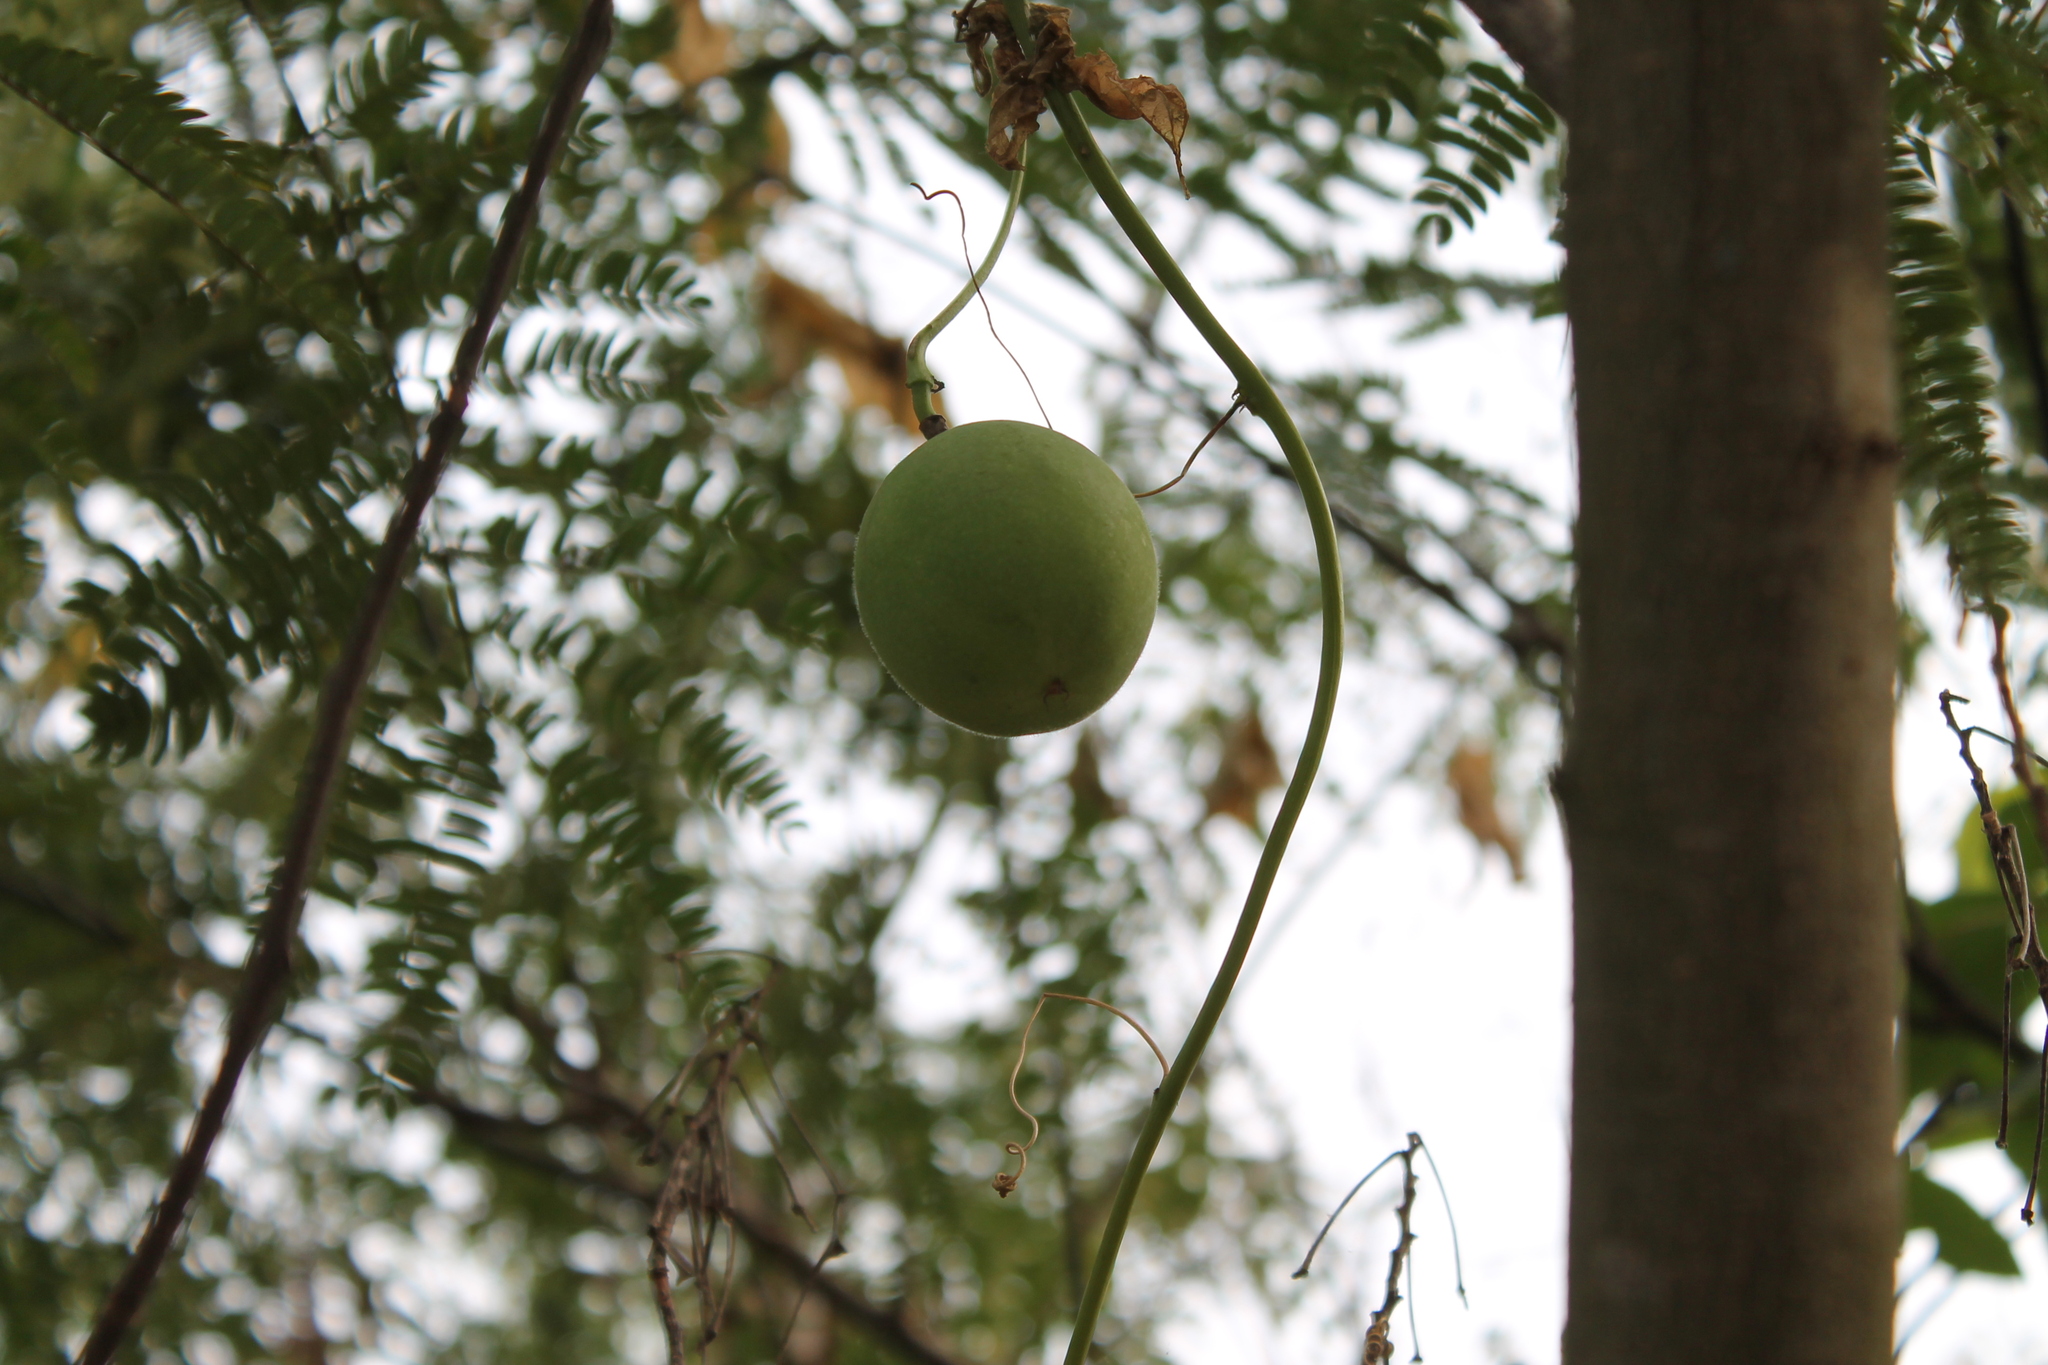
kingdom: Plantae
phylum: Tracheophyta
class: Magnoliopsida
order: Malpighiales
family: Passifloraceae
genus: Passiflora
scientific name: Passiflora incarnata
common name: Apricot-vine
